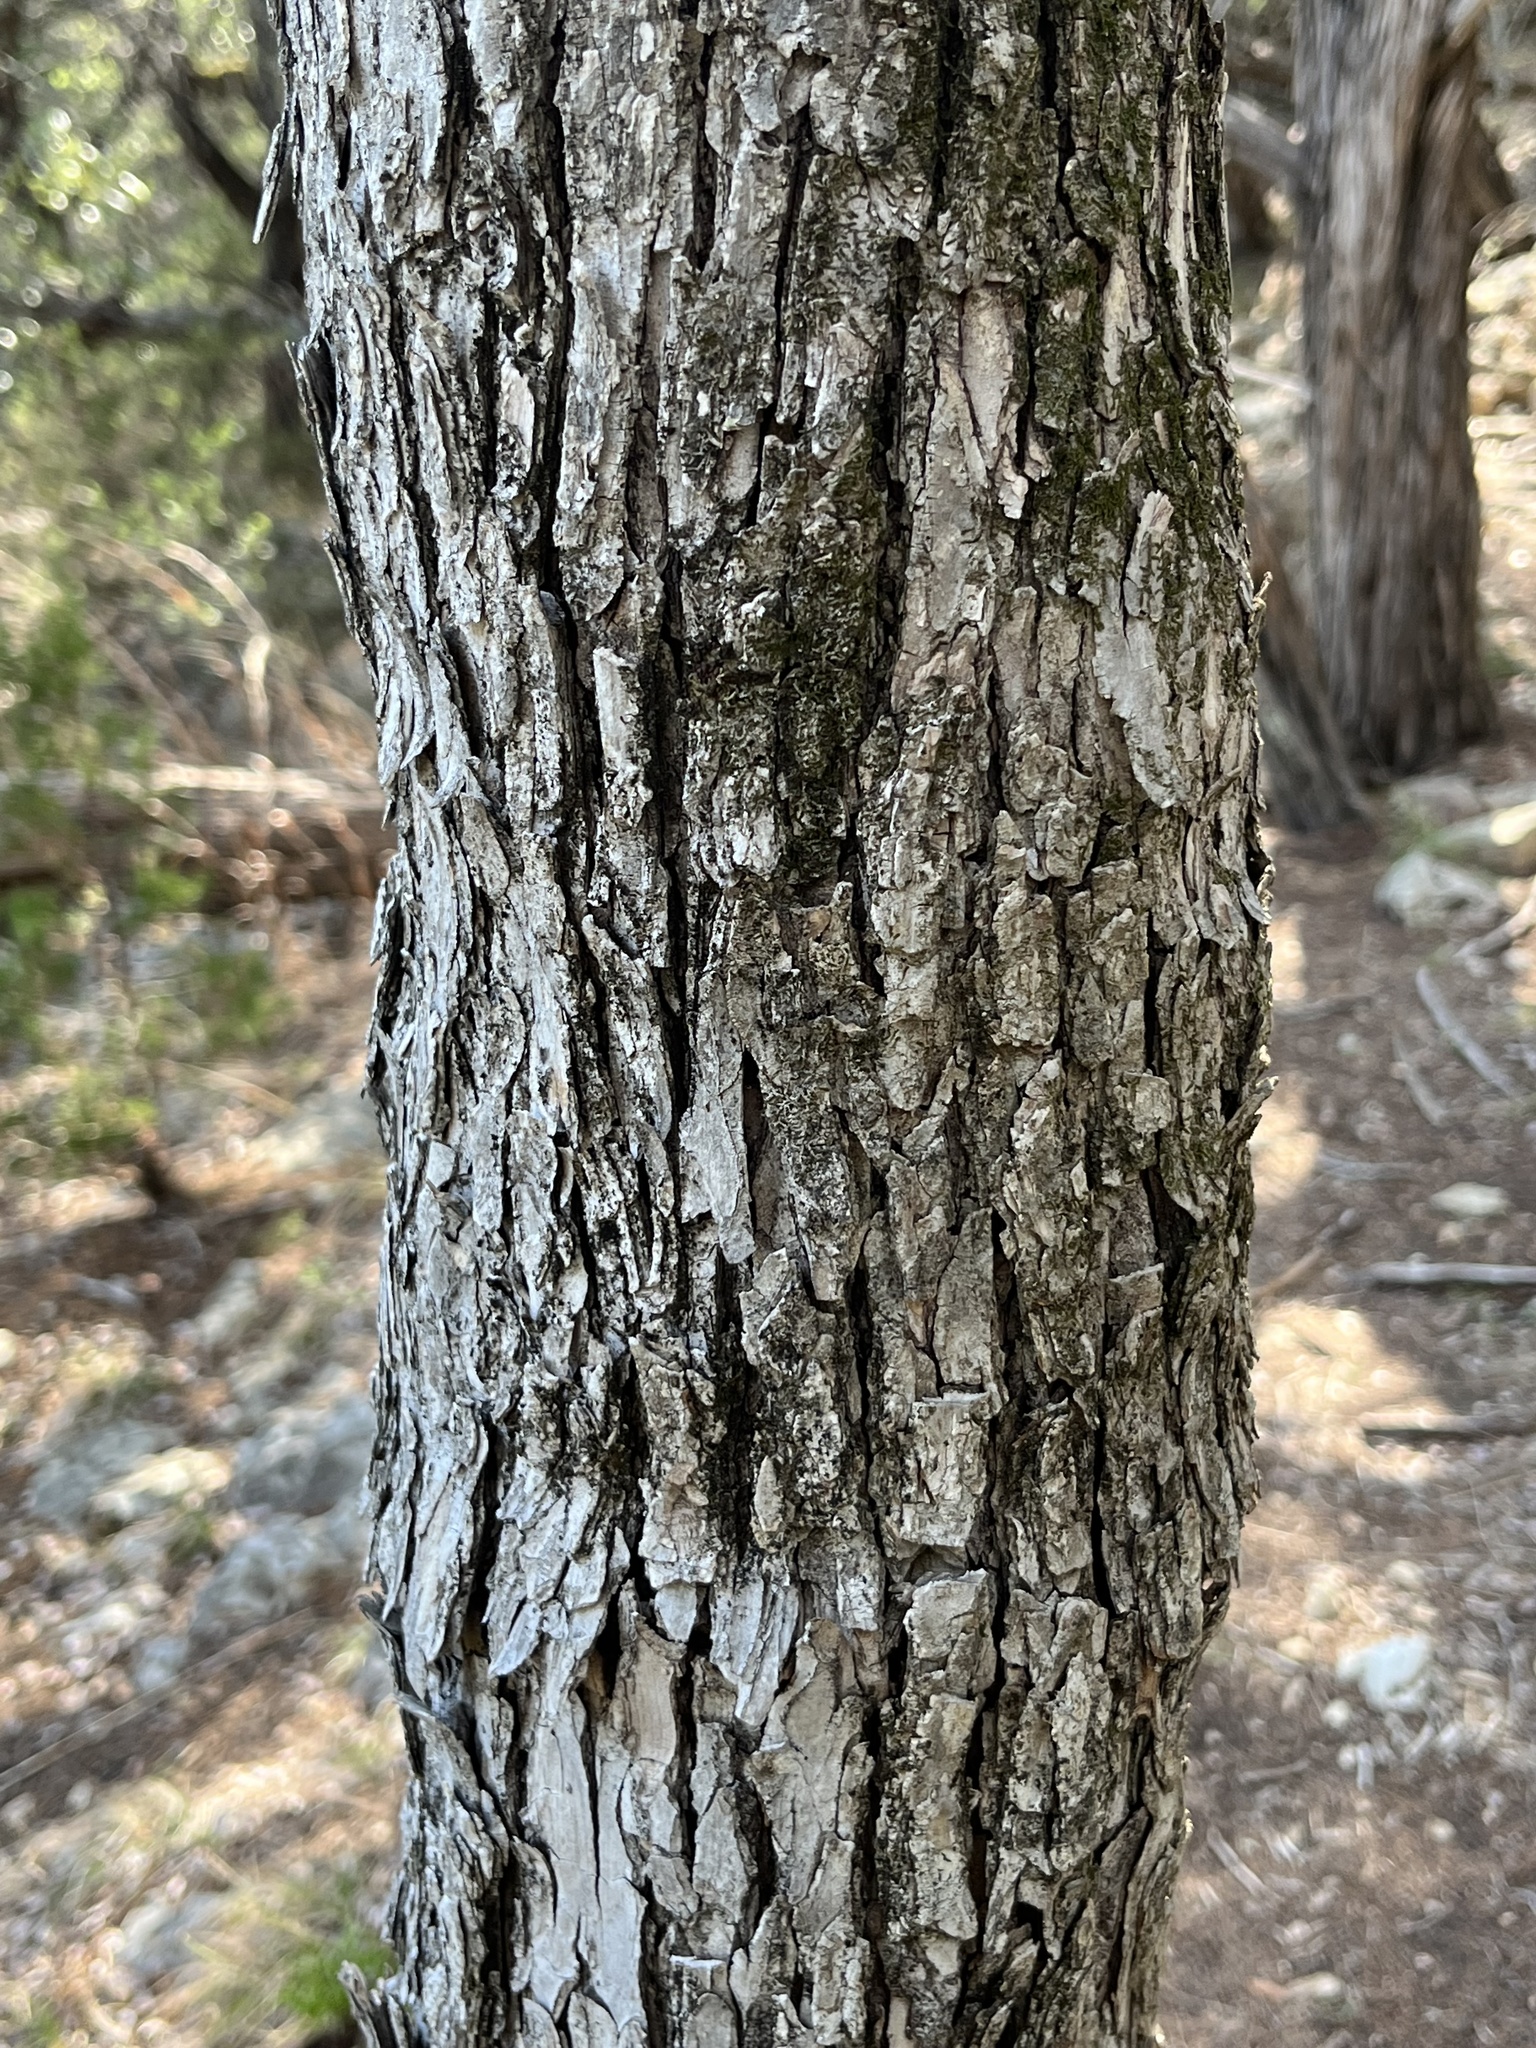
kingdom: Plantae
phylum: Tracheophyta
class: Magnoliopsida
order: Rosales
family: Ulmaceae
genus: Ulmus
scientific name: Ulmus crassifolia
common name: Basket elm
